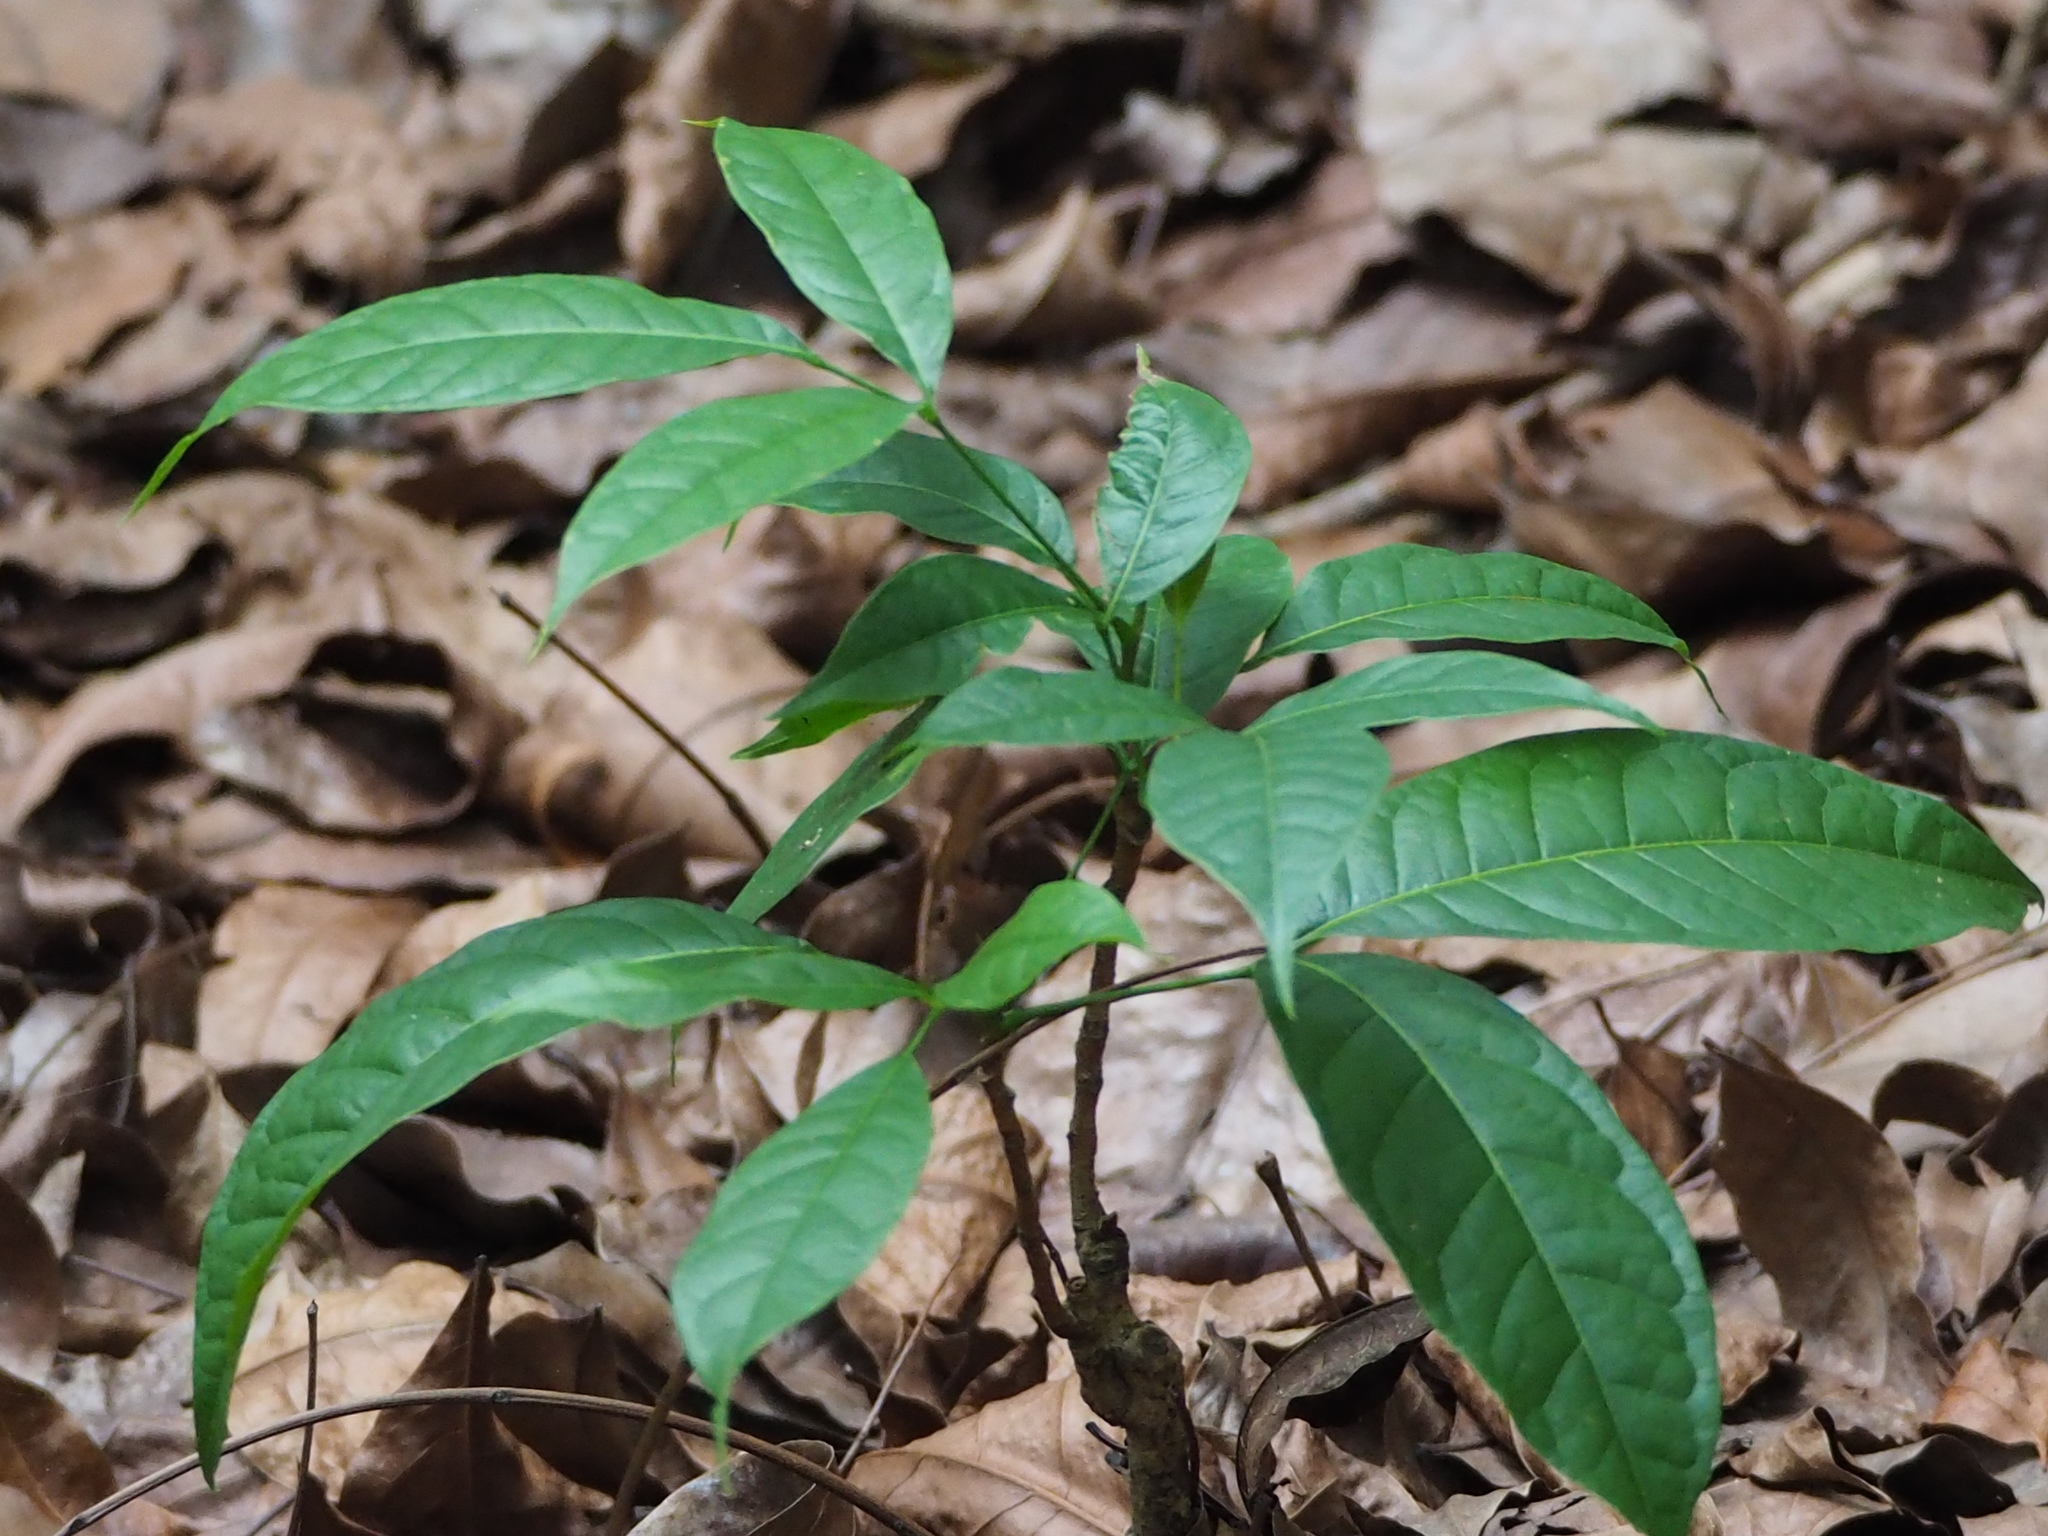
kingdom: Plantae
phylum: Tracheophyta
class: Magnoliopsida
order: Sapindales
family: Meliaceae
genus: Swietenia
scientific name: Swietenia macrophylla
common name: Honduras mahogany
